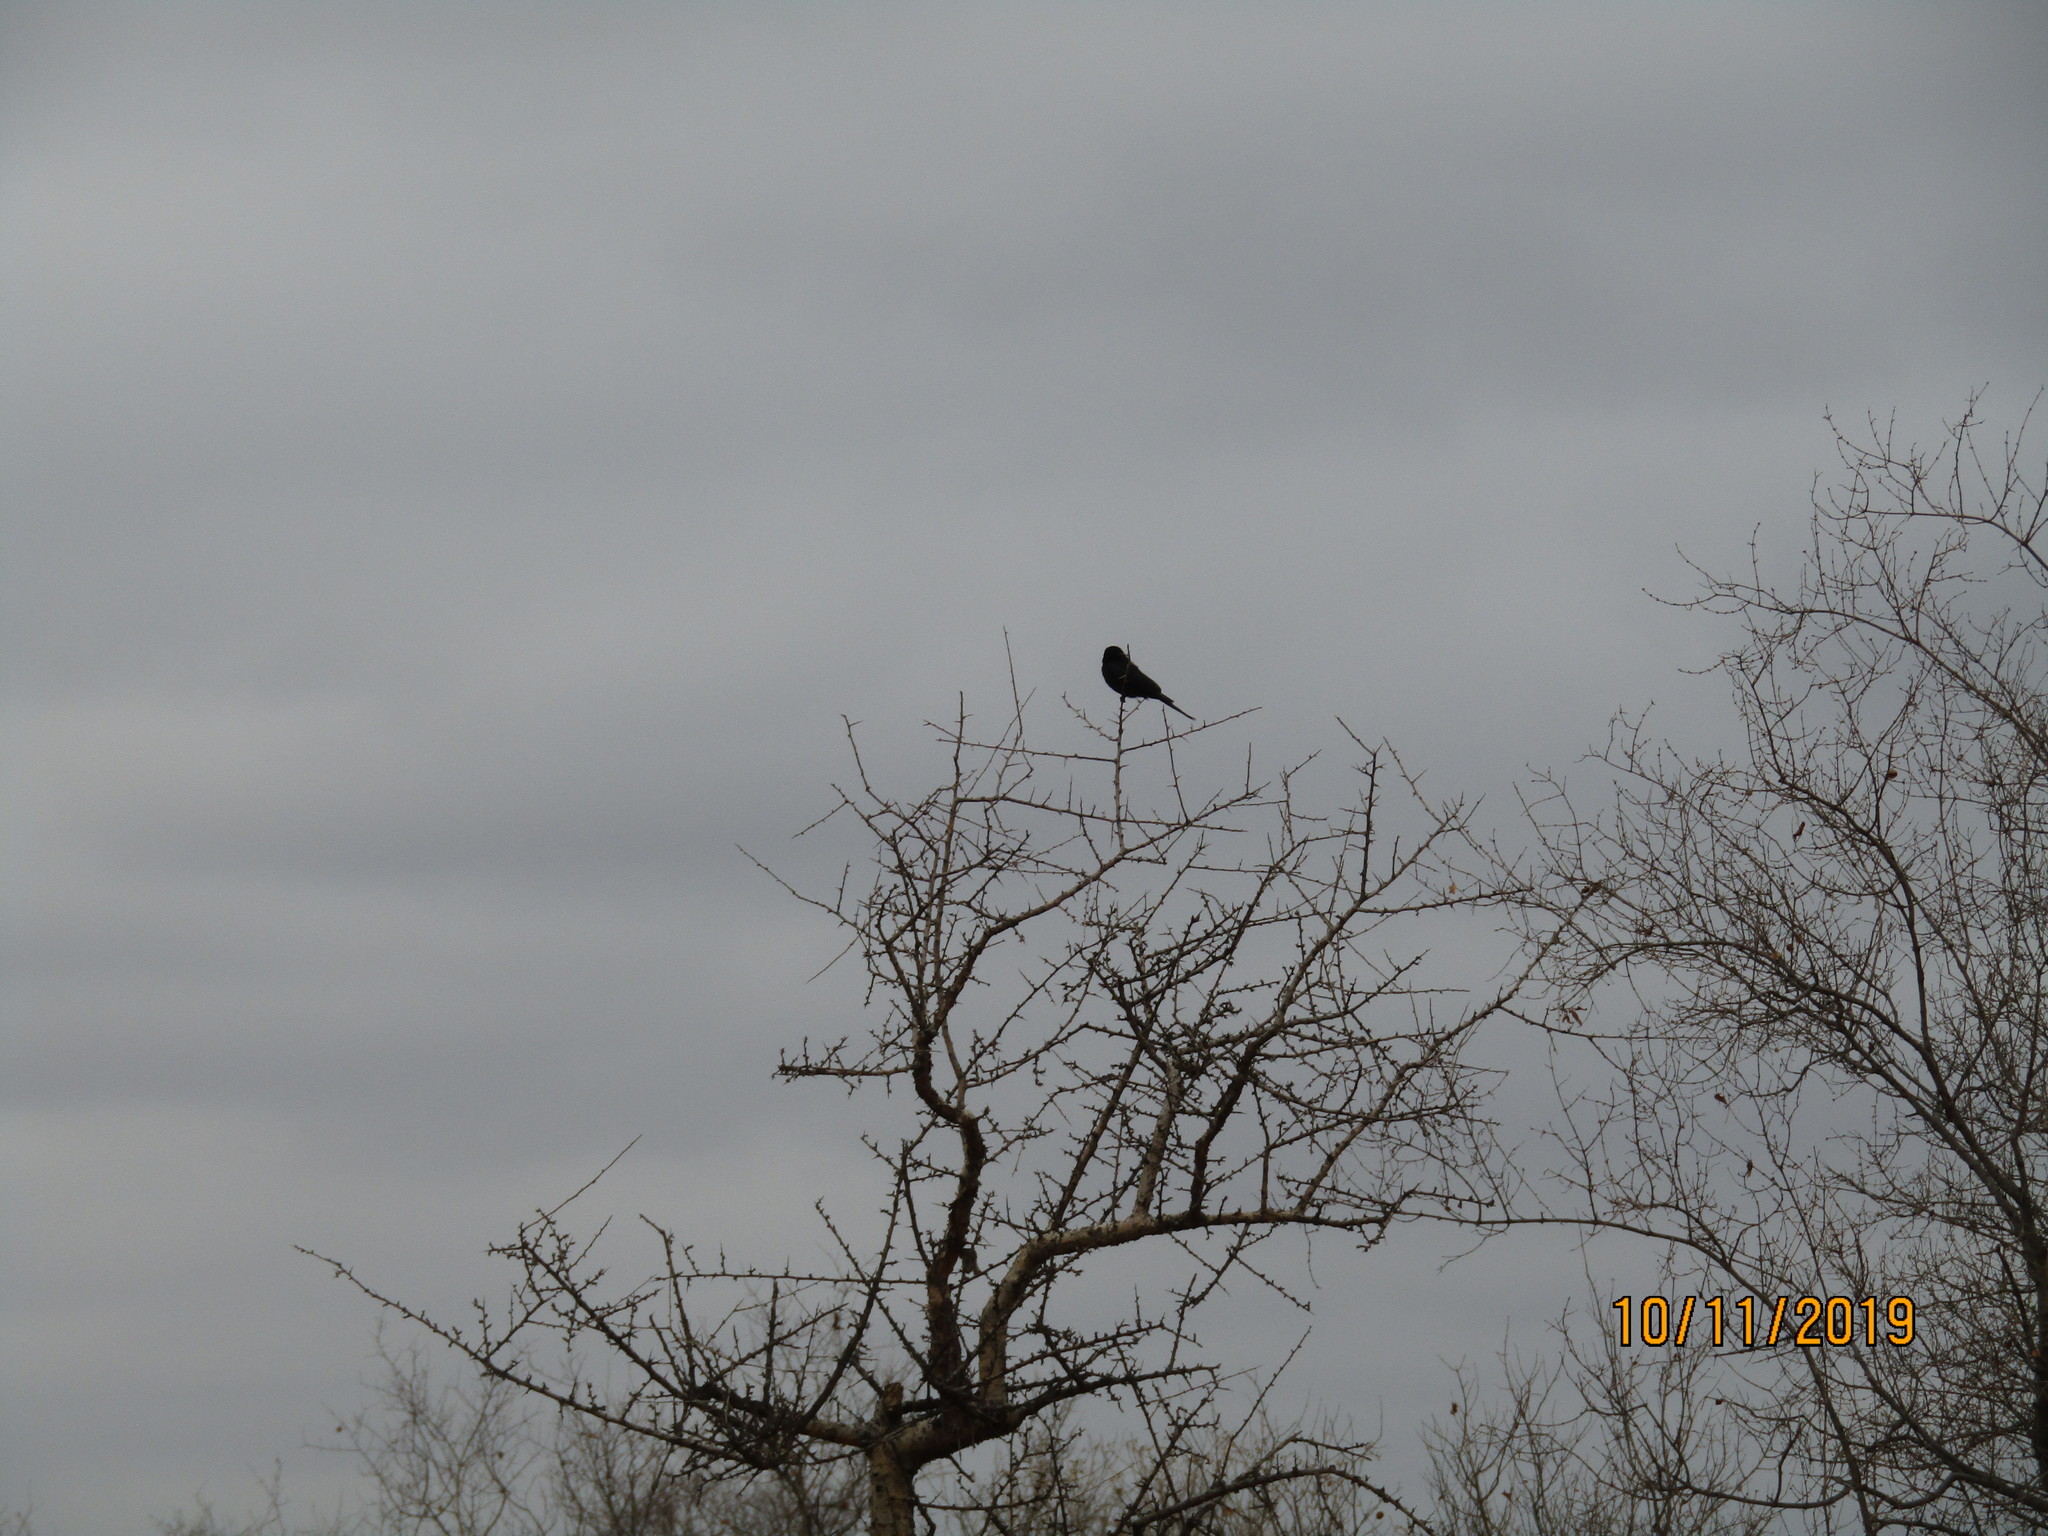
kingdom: Animalia
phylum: Chordata
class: Aves
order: Passeriformes
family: Dicruridae
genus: Dicrurus
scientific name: Dicrurus adsimilis
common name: Fork-tailed drongo
